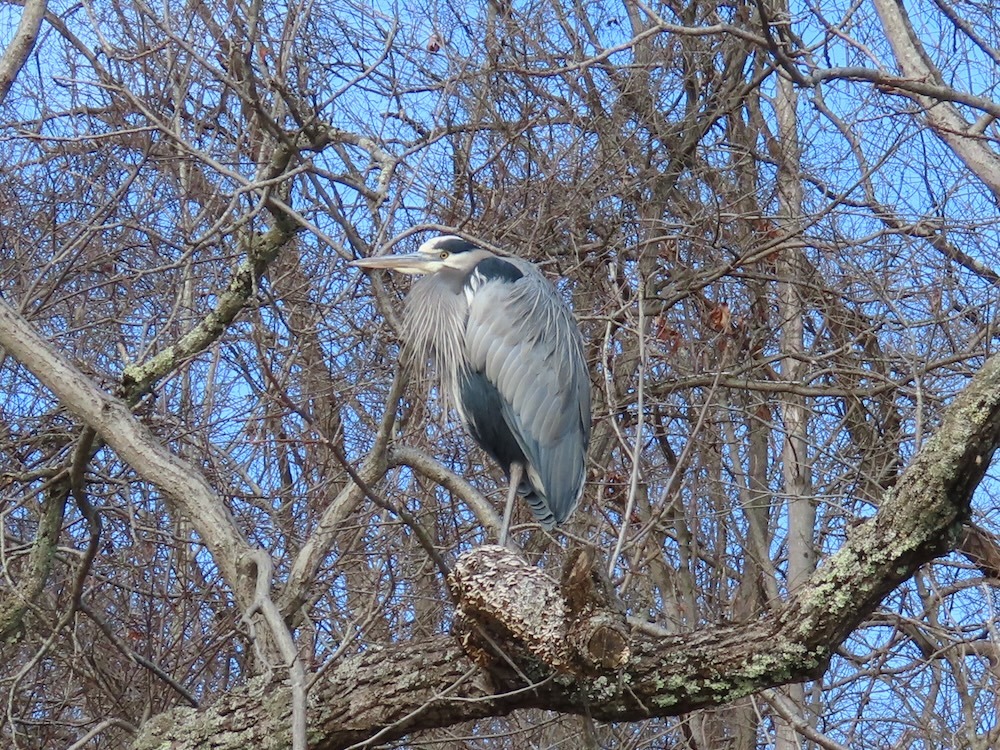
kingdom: Animalia
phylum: Chordata
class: Aves
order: Pelecaniformes
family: Ardeidae
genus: Ardea
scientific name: Ardea herodias
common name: Great blue heron
